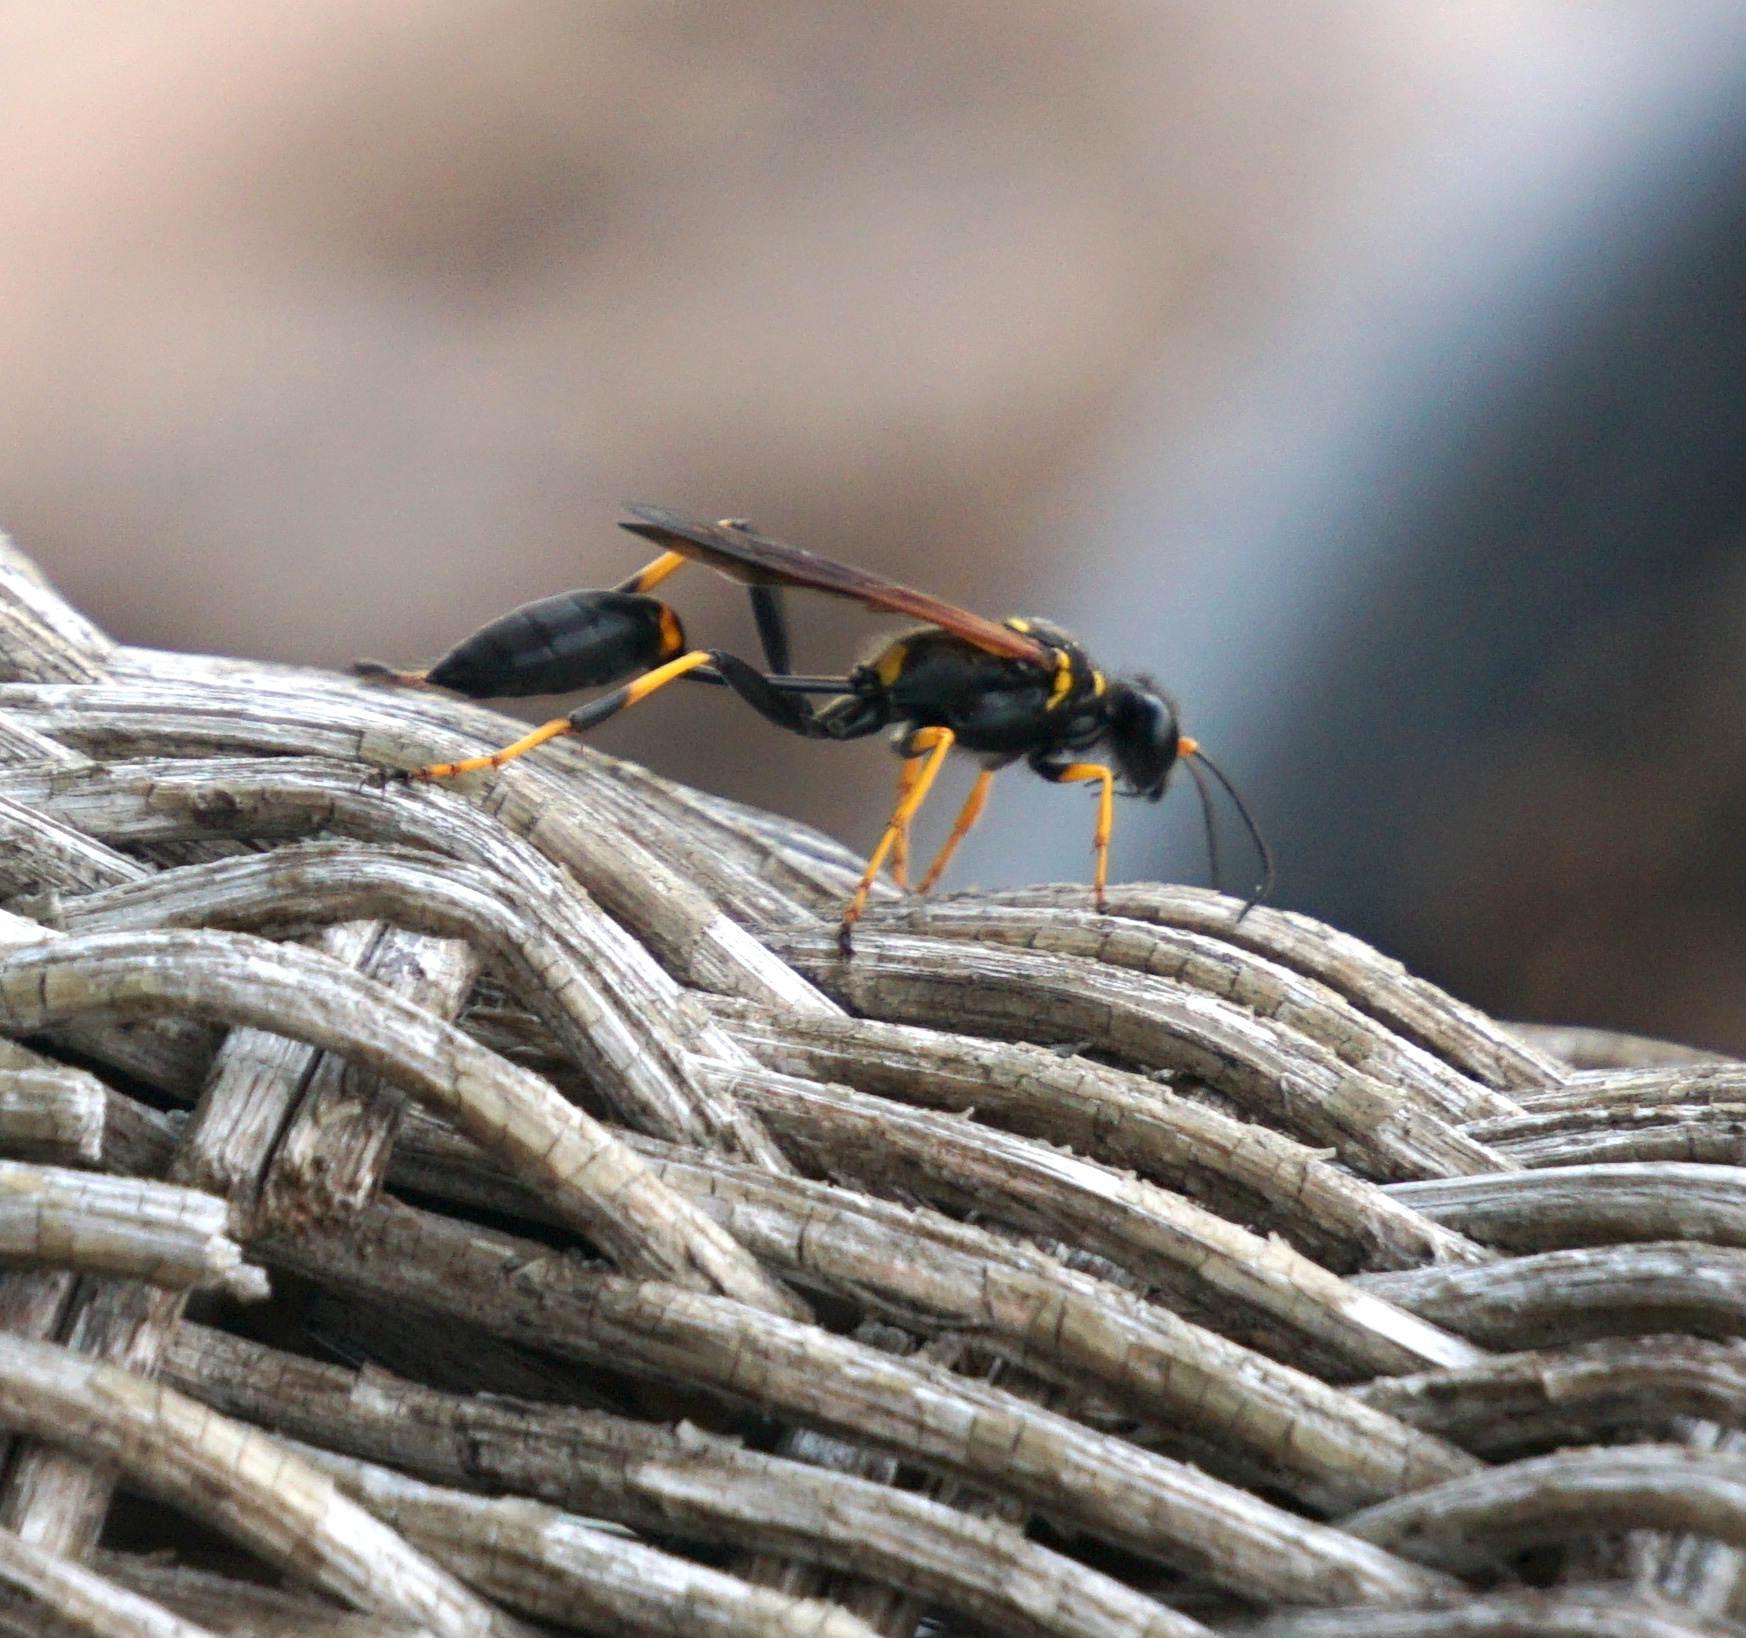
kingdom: Animalia
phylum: Arthropoda
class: Insecta
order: Hymenoptera
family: Sphecidae
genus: Sceliphron
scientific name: Sceliphron caementarium
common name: Mud dauber
